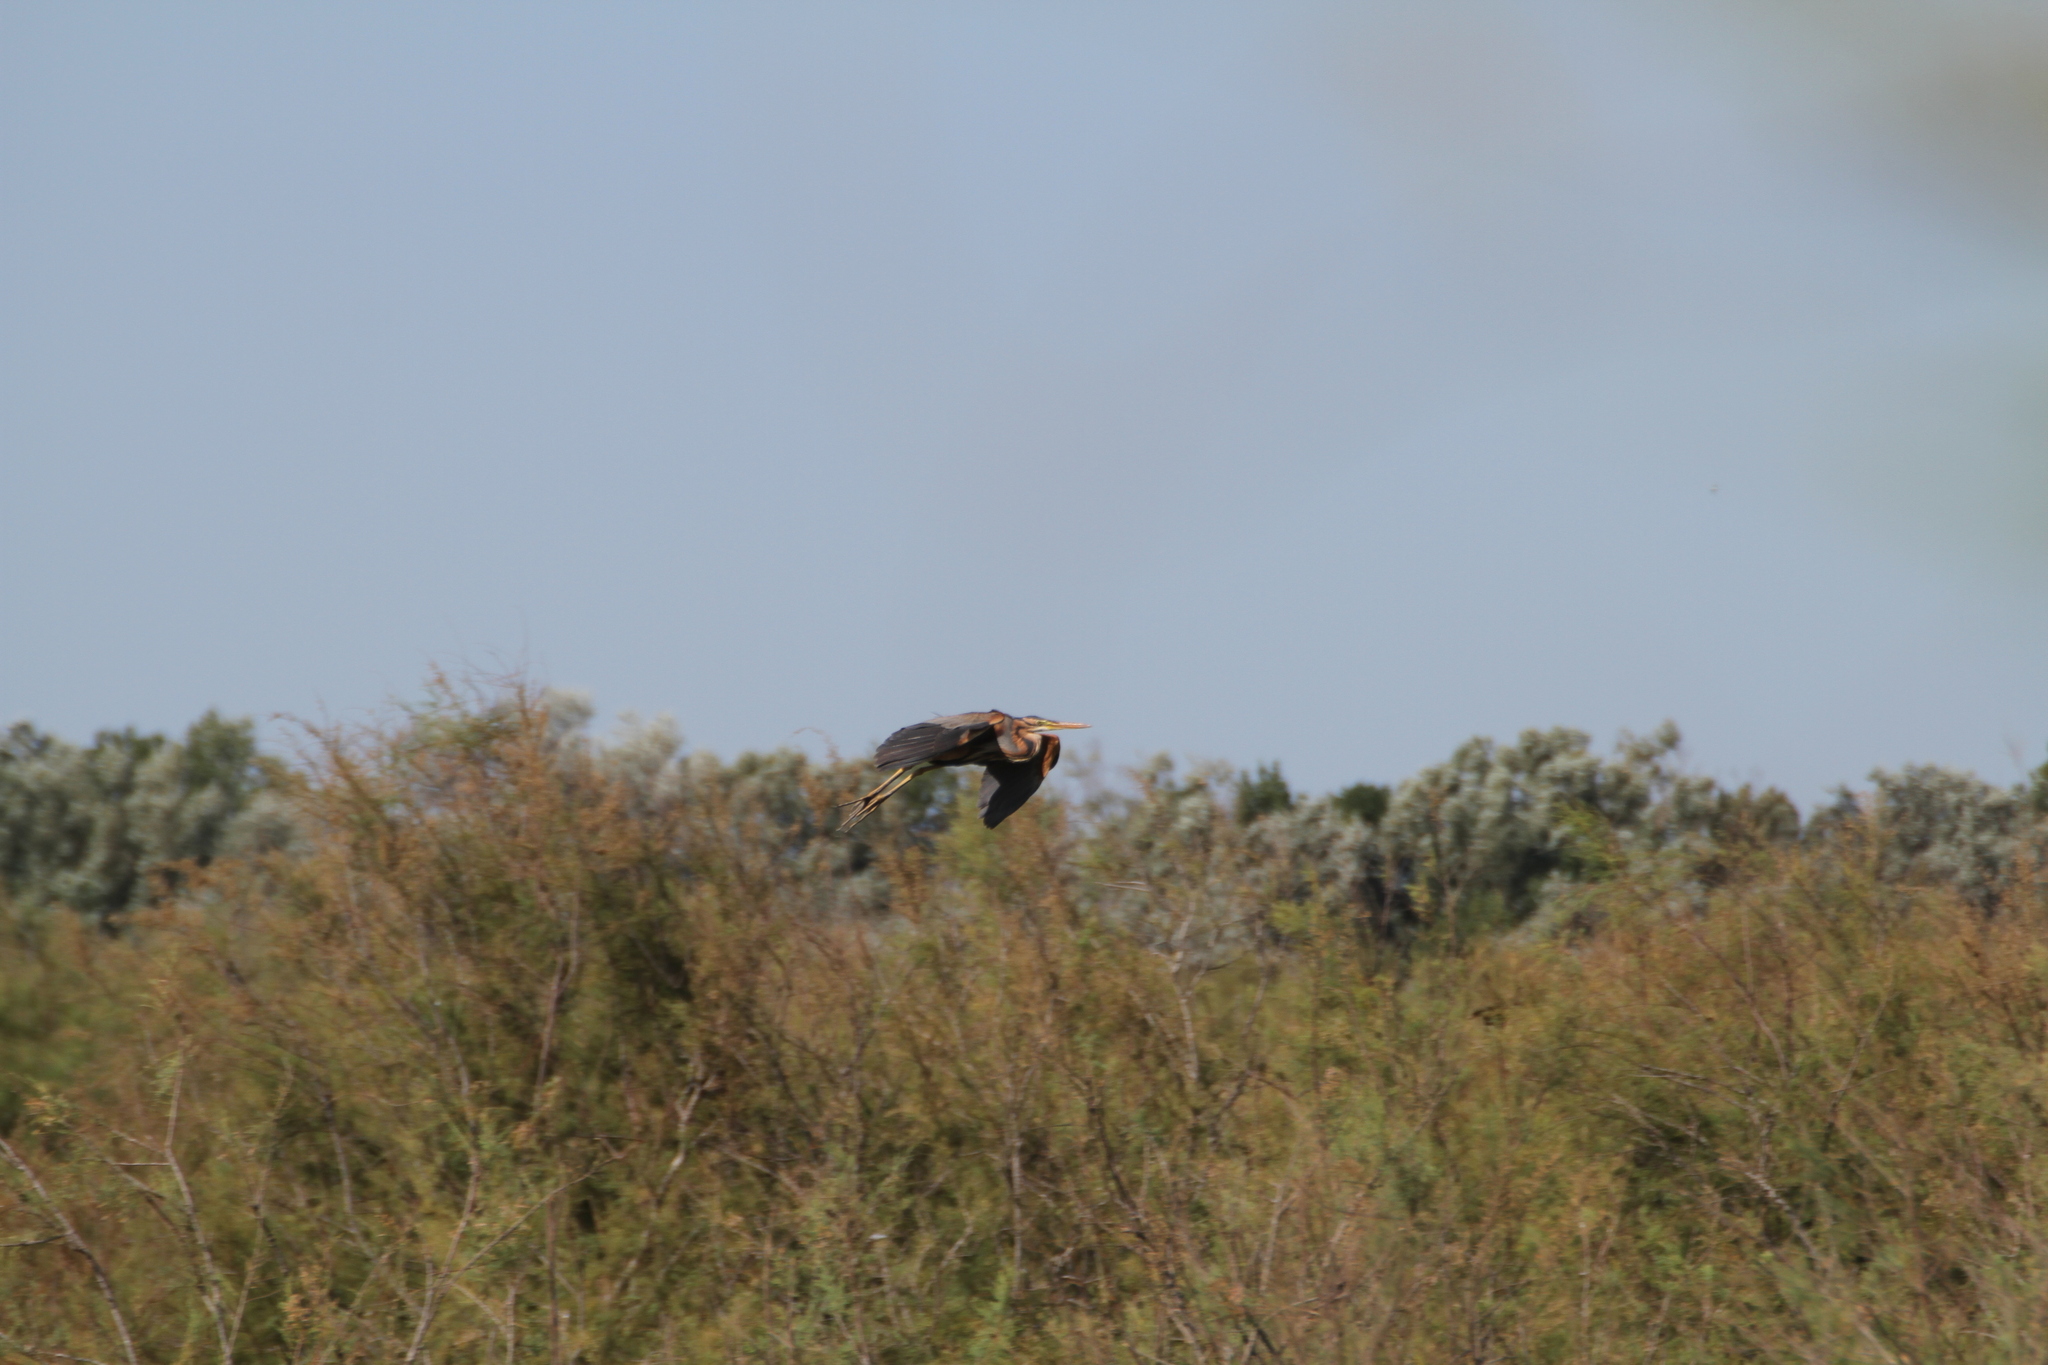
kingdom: Animalia
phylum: Chordata
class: Aves
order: Pelecaniformes
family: Ardeidae
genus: Ardea
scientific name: Ardea purpurea
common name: Purple heron
